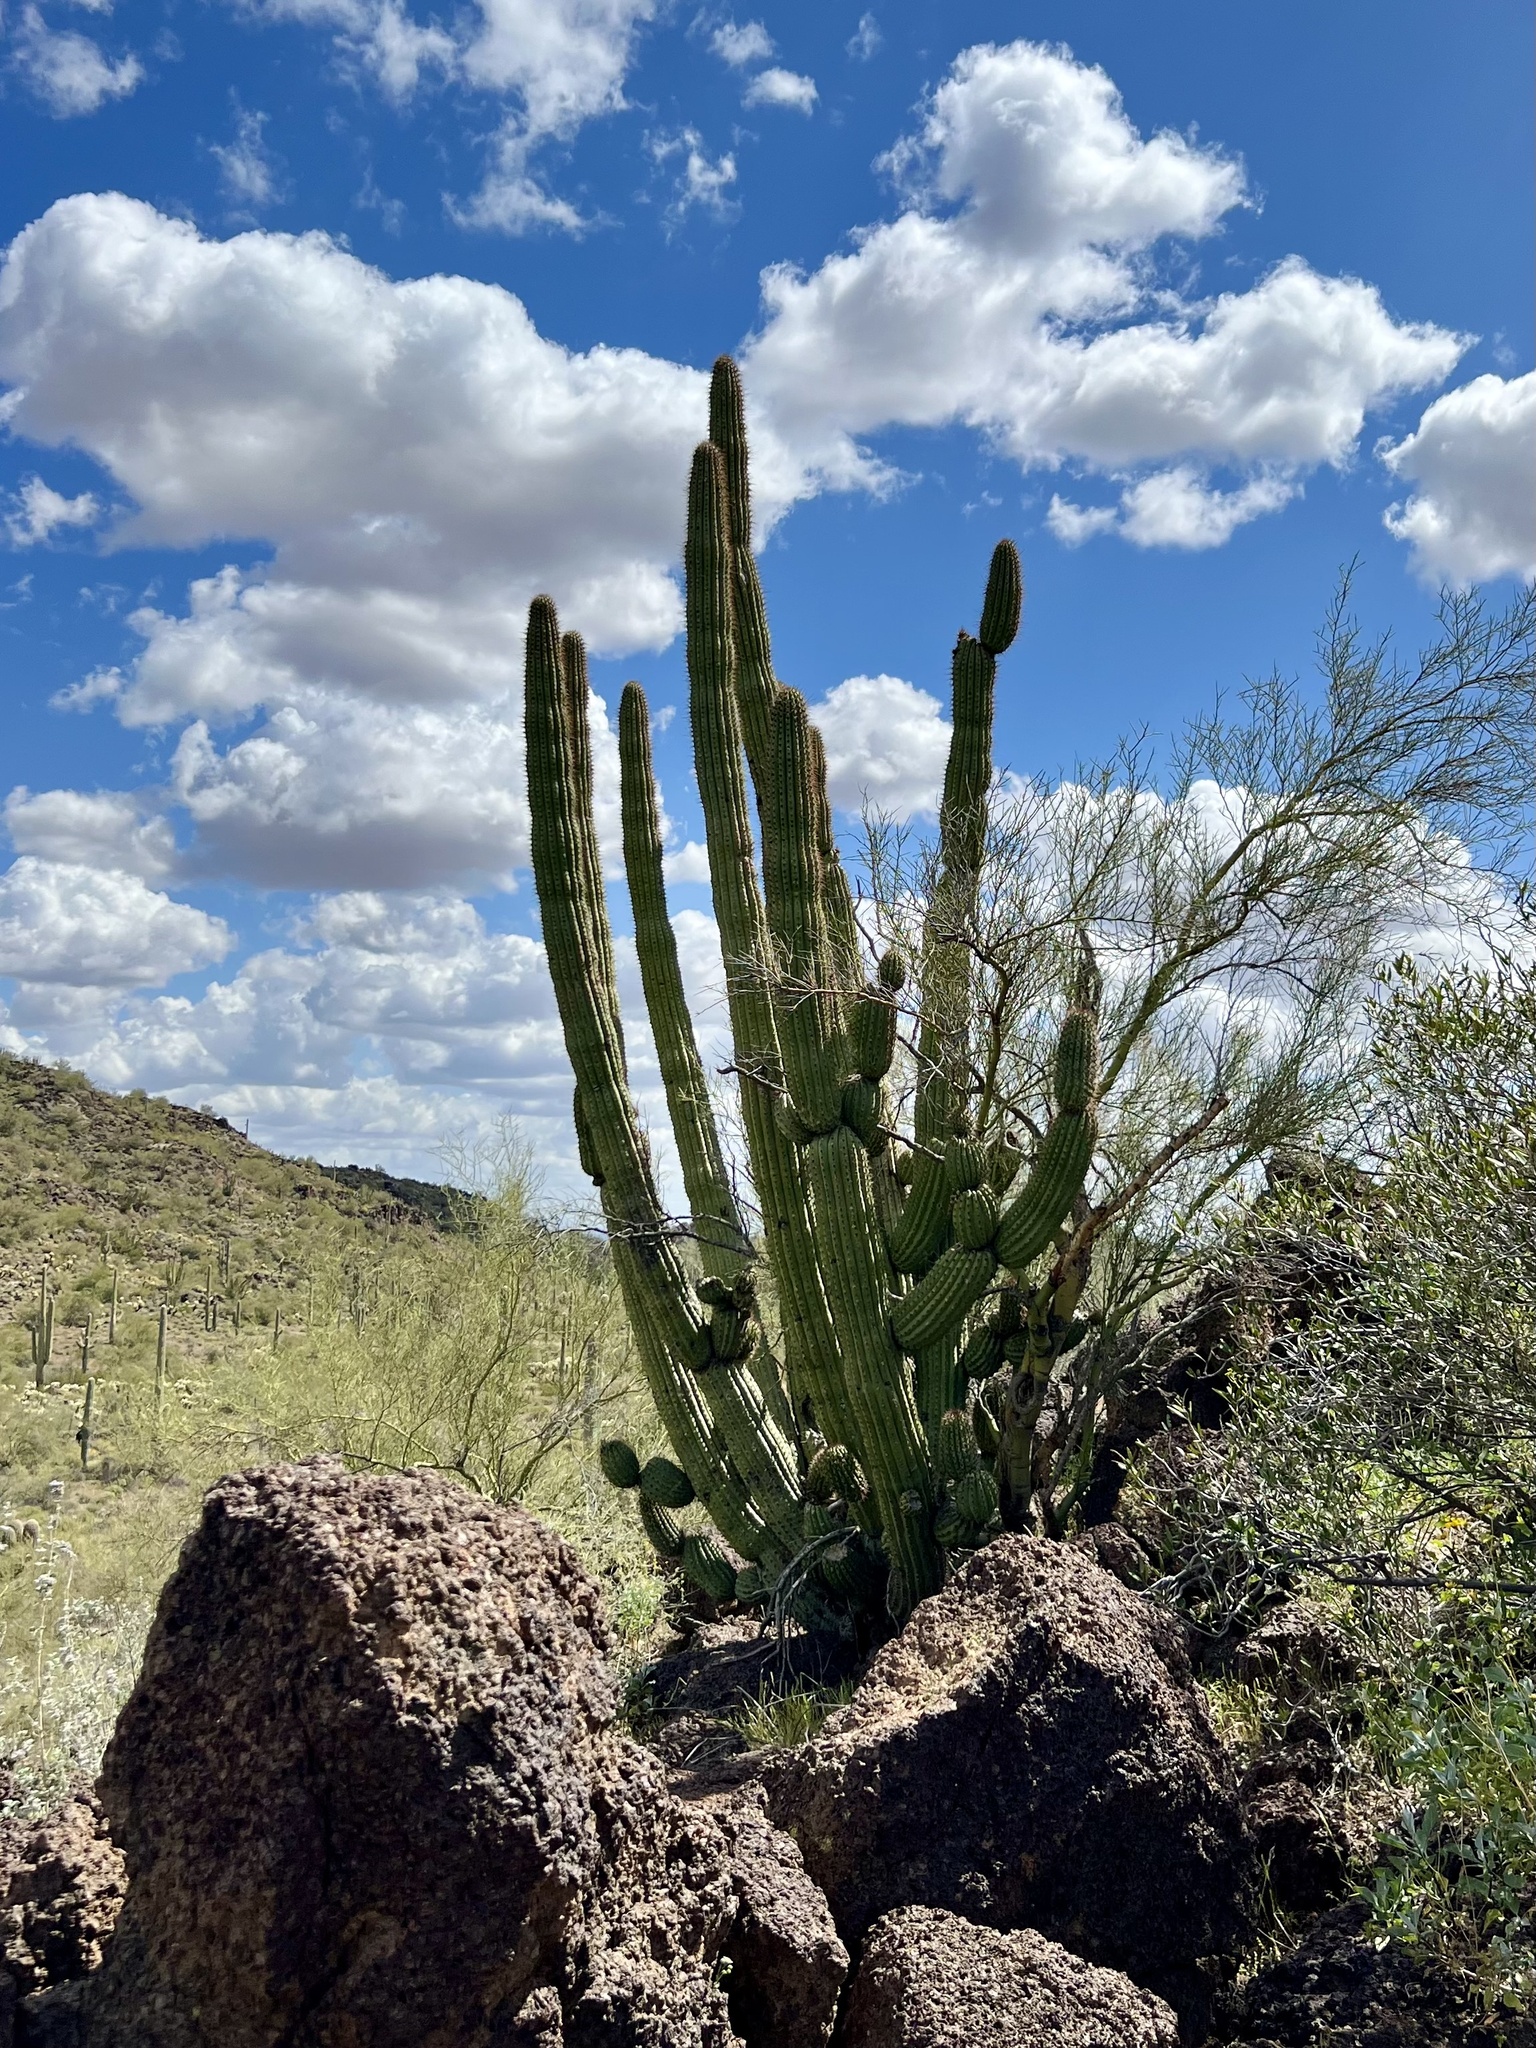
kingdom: Plantae
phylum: Tracheophyta
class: Magnoliopsida
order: Caryophyllales
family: Cactaceae
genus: Stenocereus
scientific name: Stenocereus thurberi
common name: Organ pipe cactus
